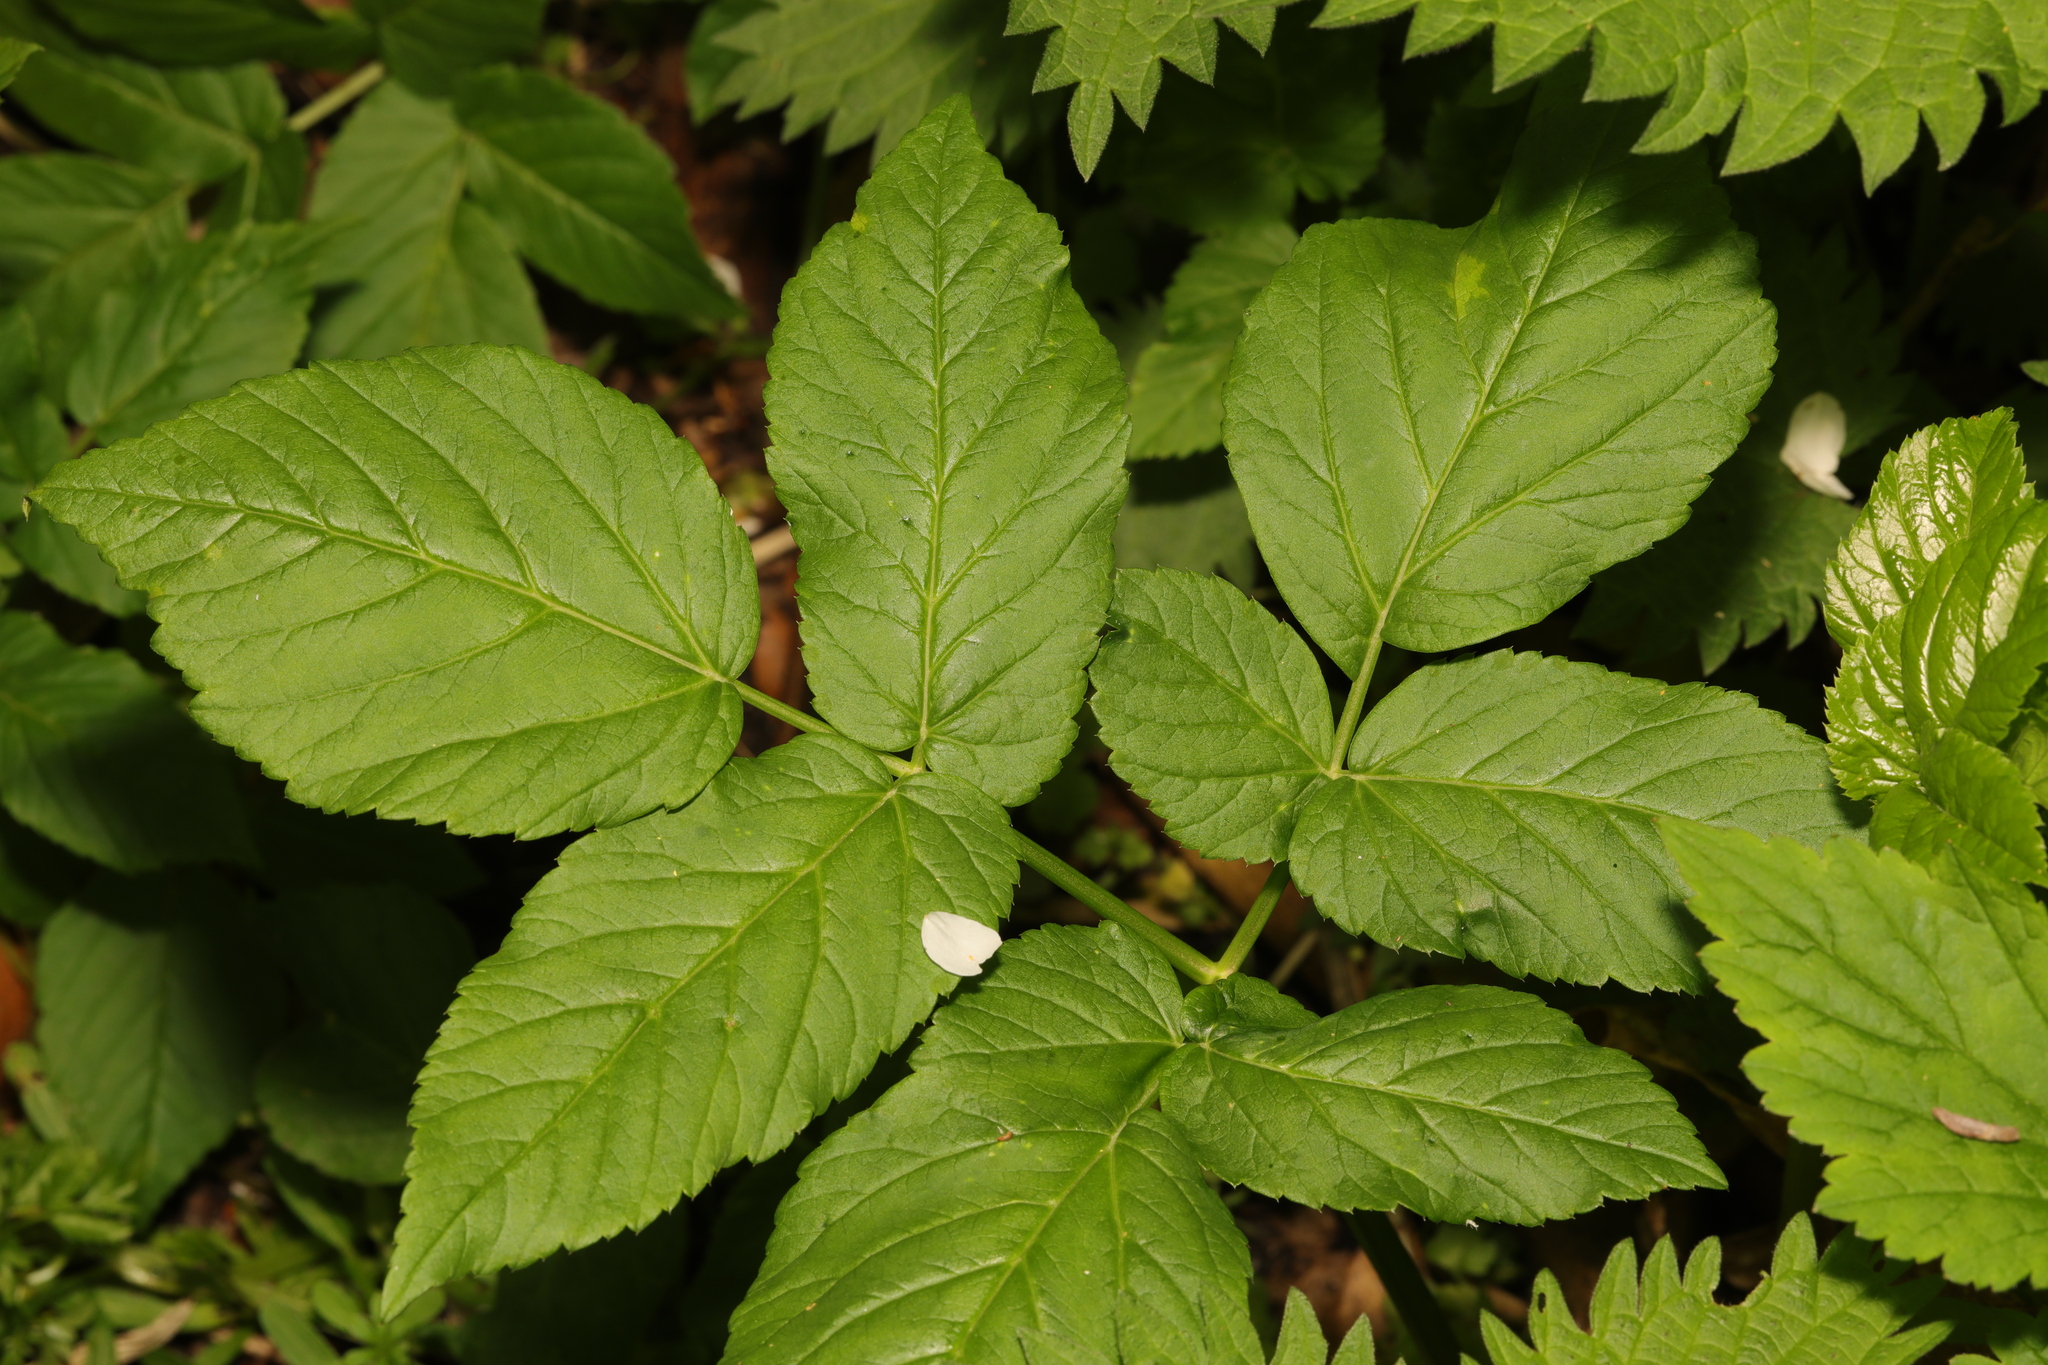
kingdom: Plantae
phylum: Tracheophyta
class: Magnoliopsida
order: Apiales
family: Apiaceae
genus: Aegopodium
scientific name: Aegopodium podagraria
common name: Ground-elder
